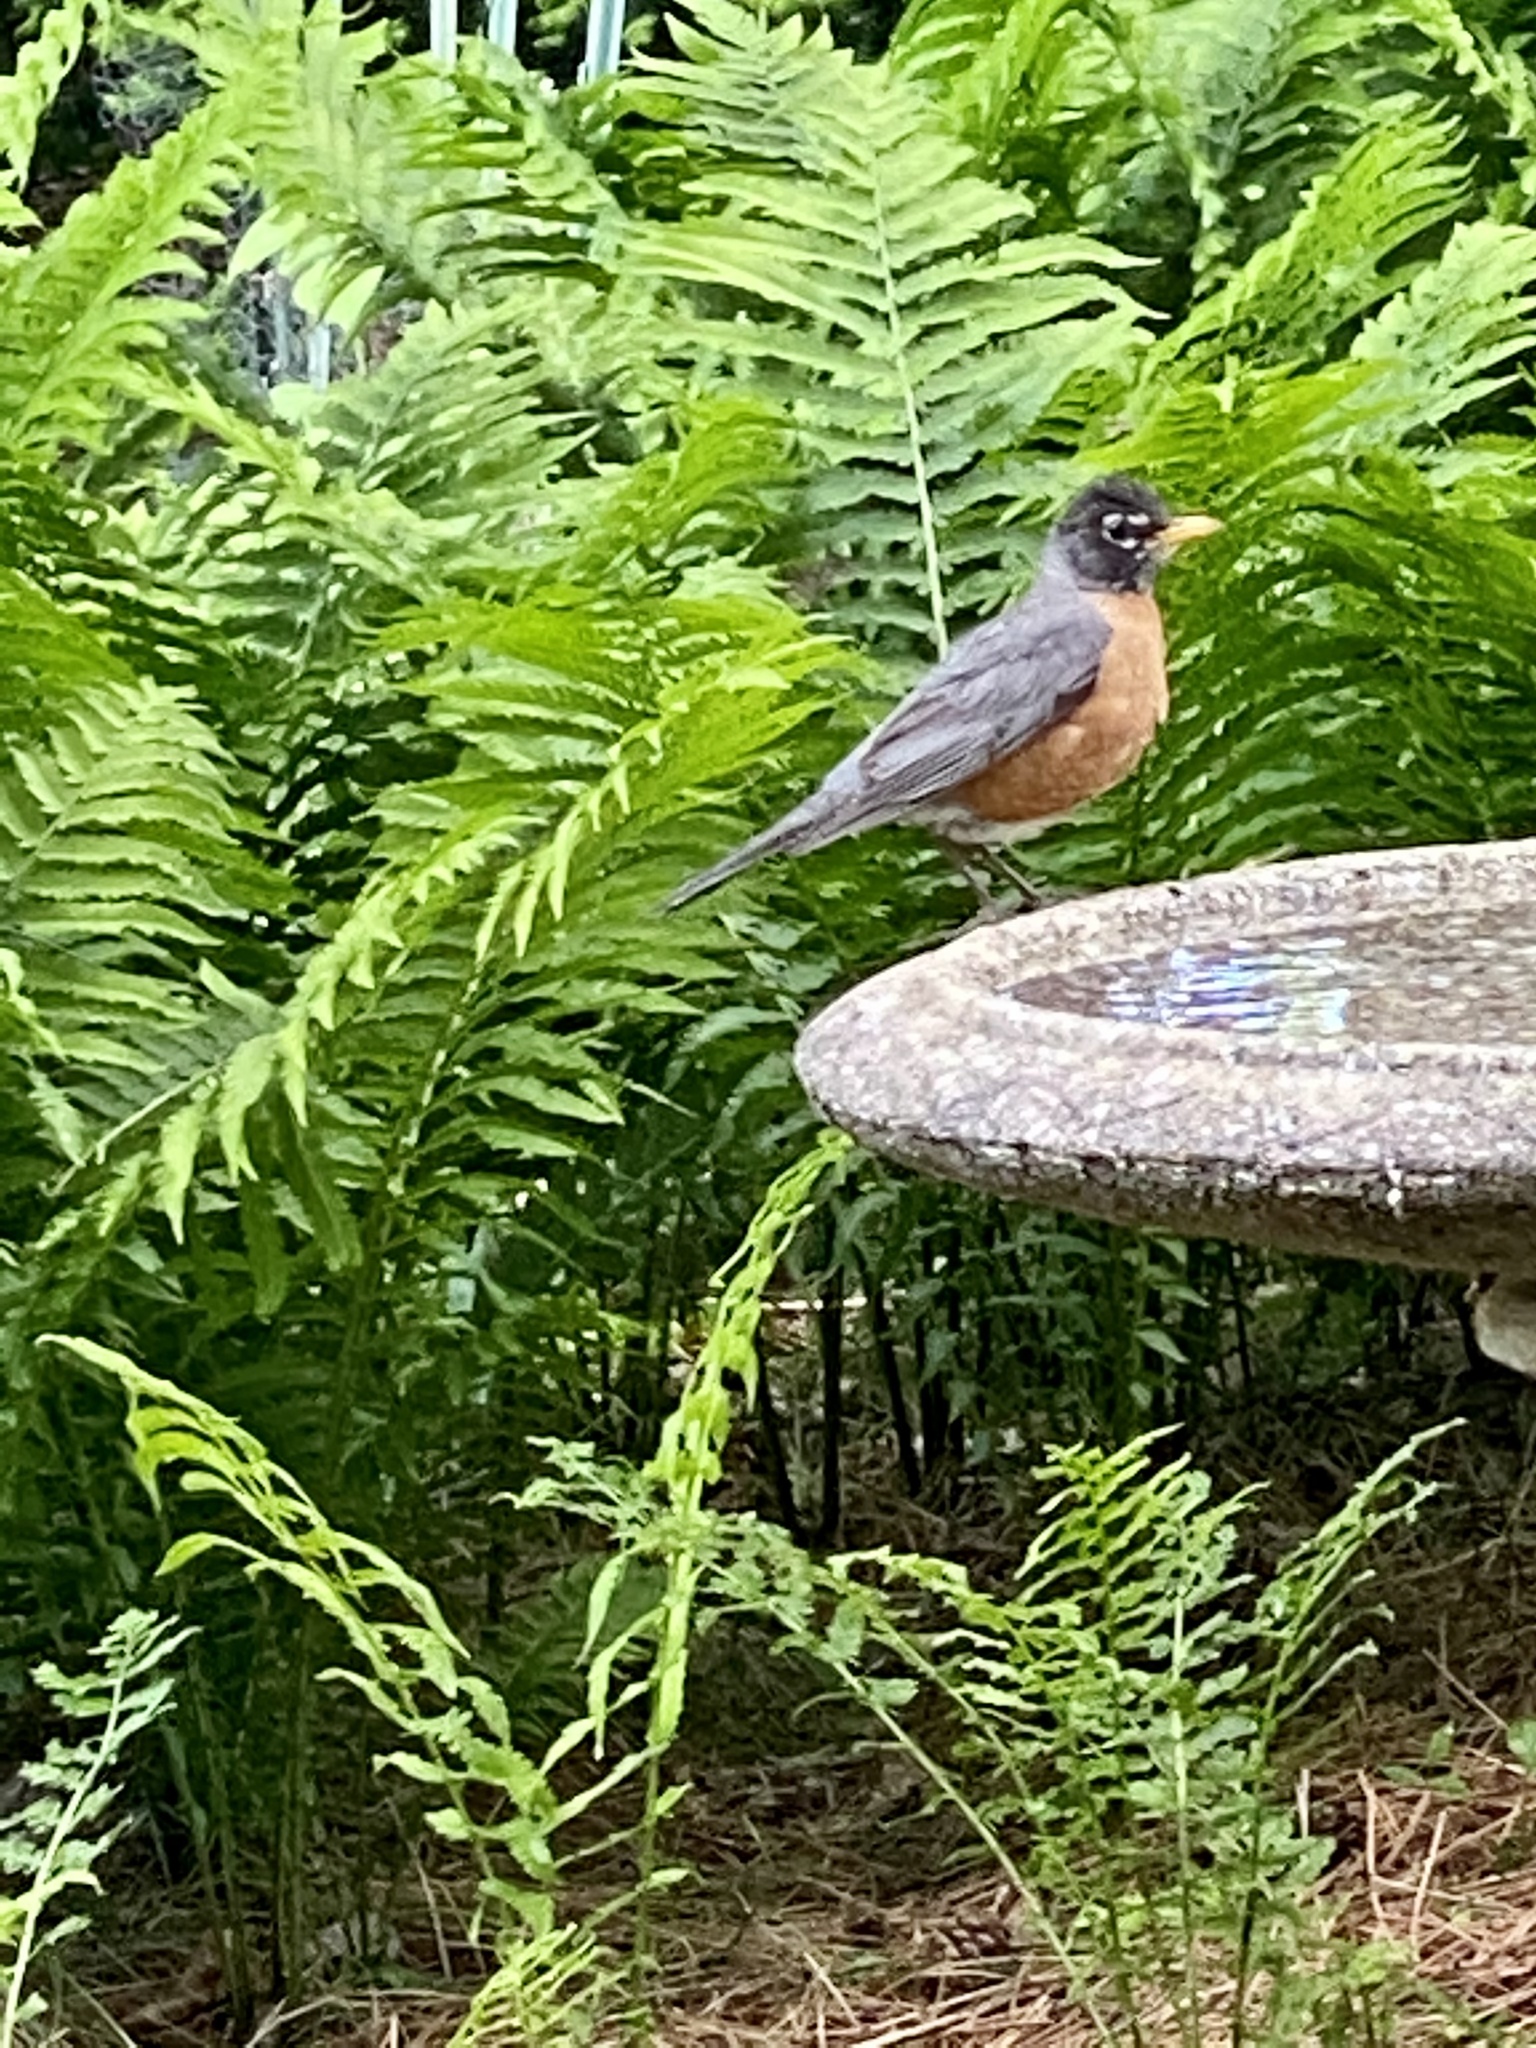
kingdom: Animalia
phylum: Chordata
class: Aves
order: Passeriformes
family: Turdidae
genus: Turdus
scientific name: Turdus migratorius
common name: American robin
